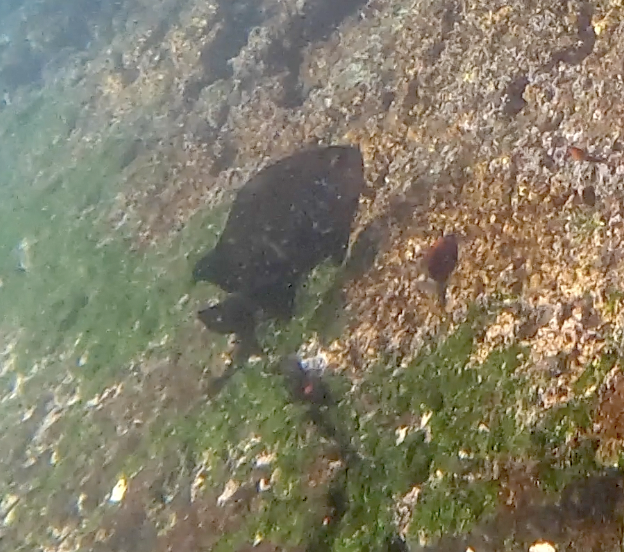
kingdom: Animalia
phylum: Chordata
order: Perciformes
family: Pomacentridae
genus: Stegastes
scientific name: Stegastes beebei
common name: Galapagos ringtail damselfish
